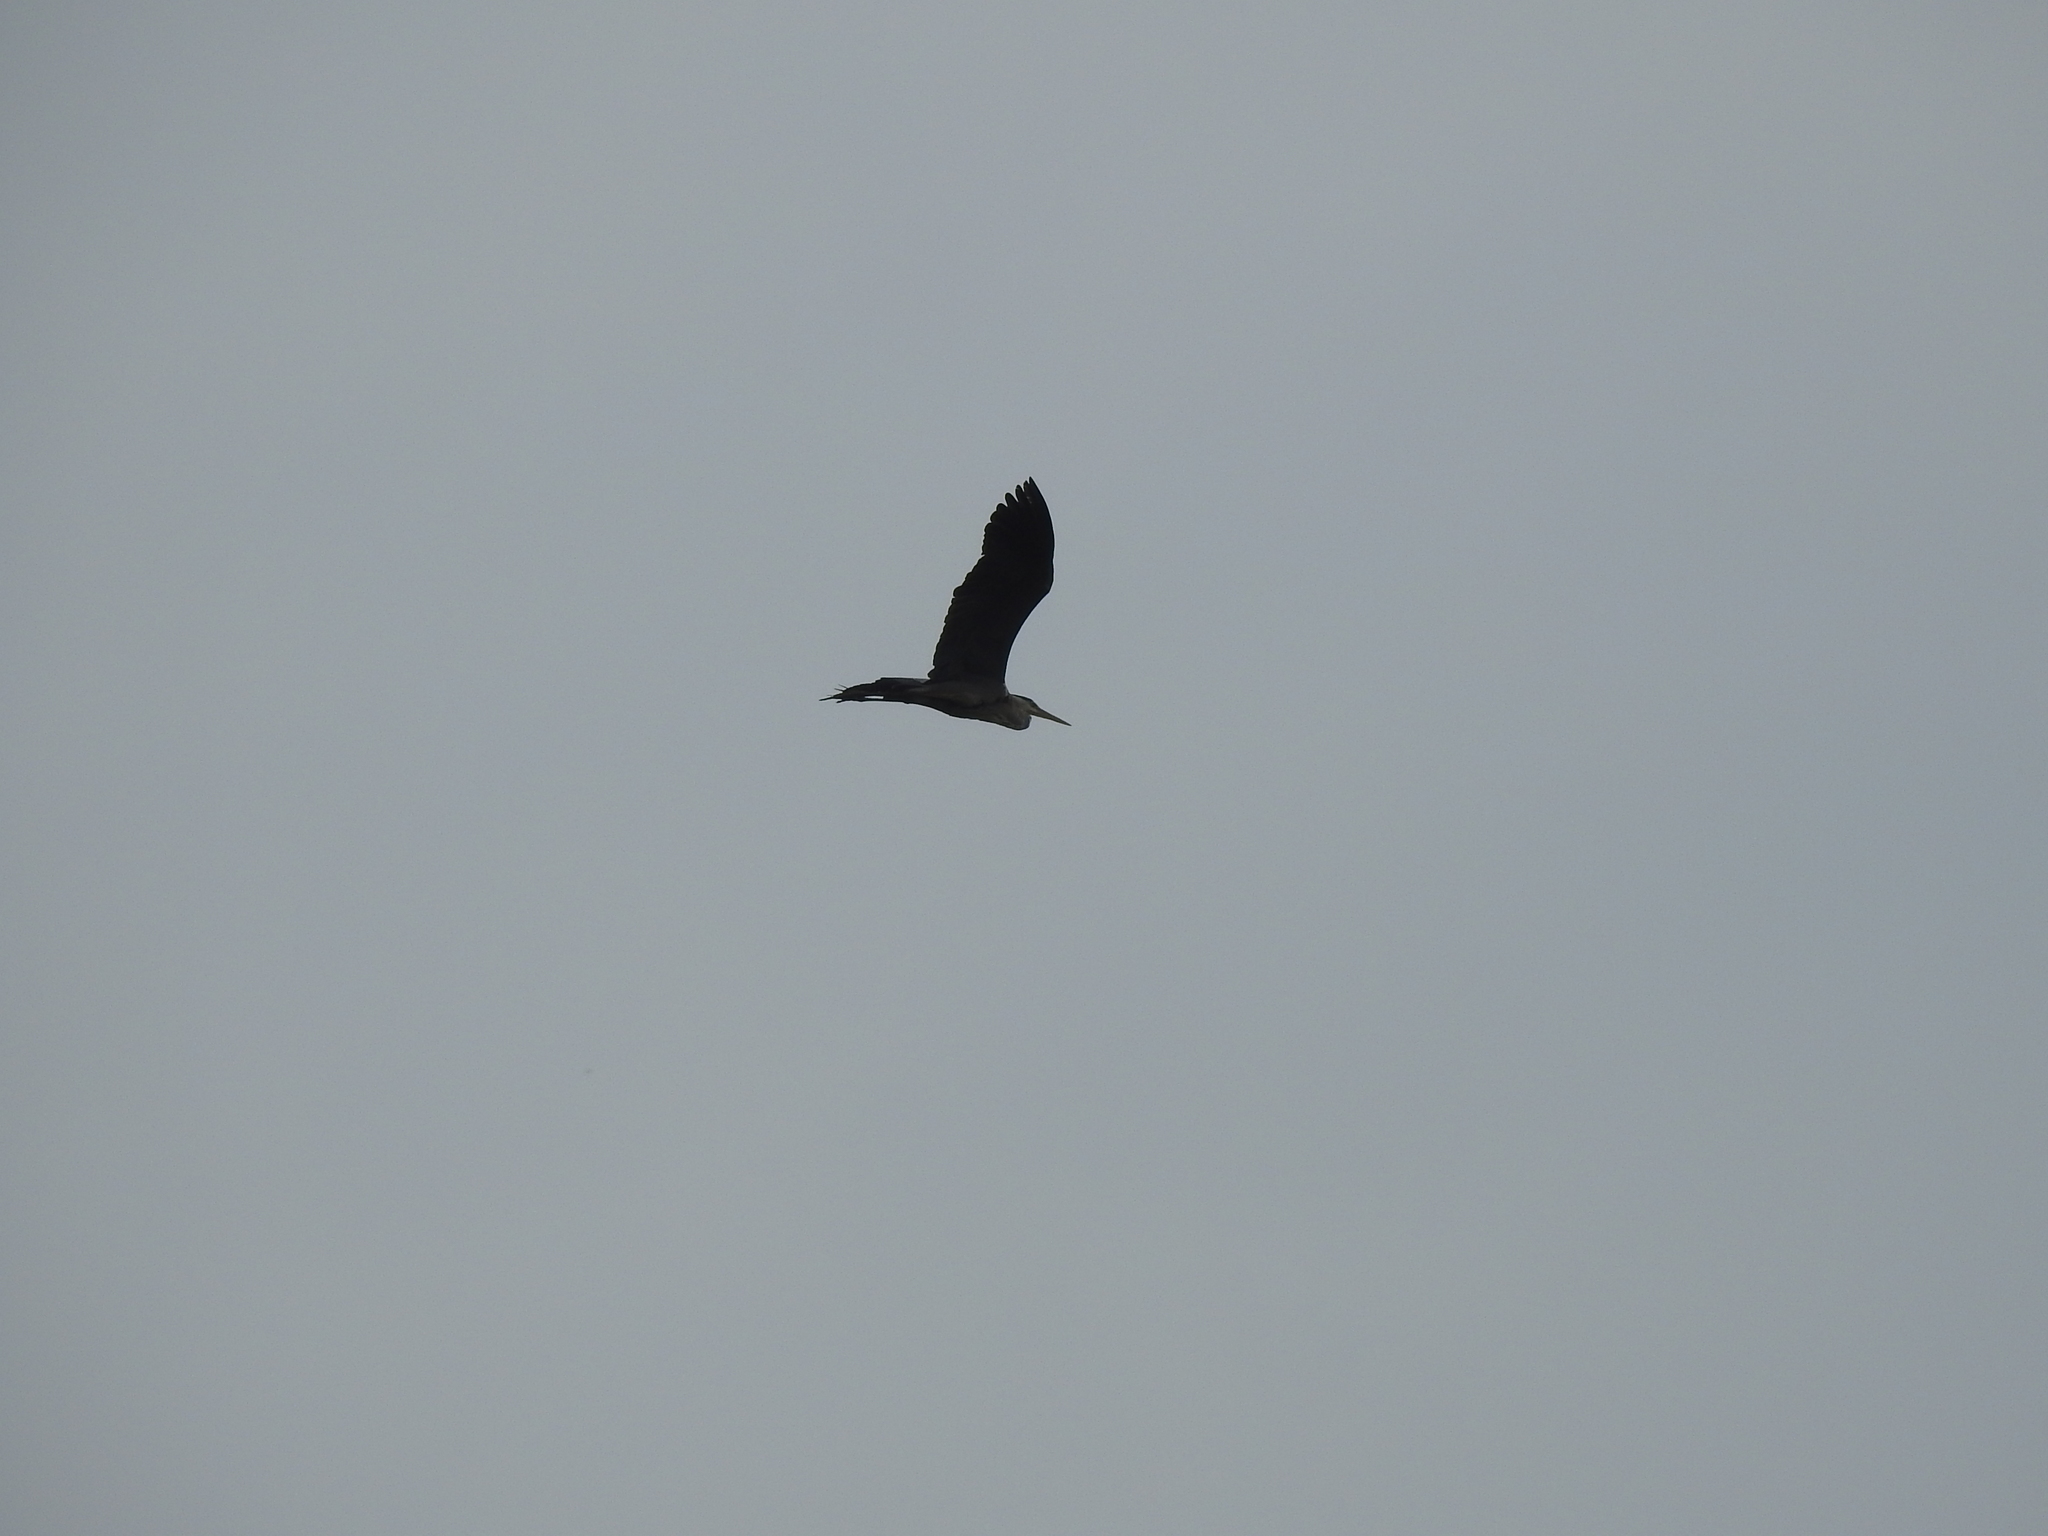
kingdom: Animalia
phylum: Chordata
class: Aves
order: Pelecaniformes
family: Ardeidae
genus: Ardea
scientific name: Ardea cinerea
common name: Grey heron
